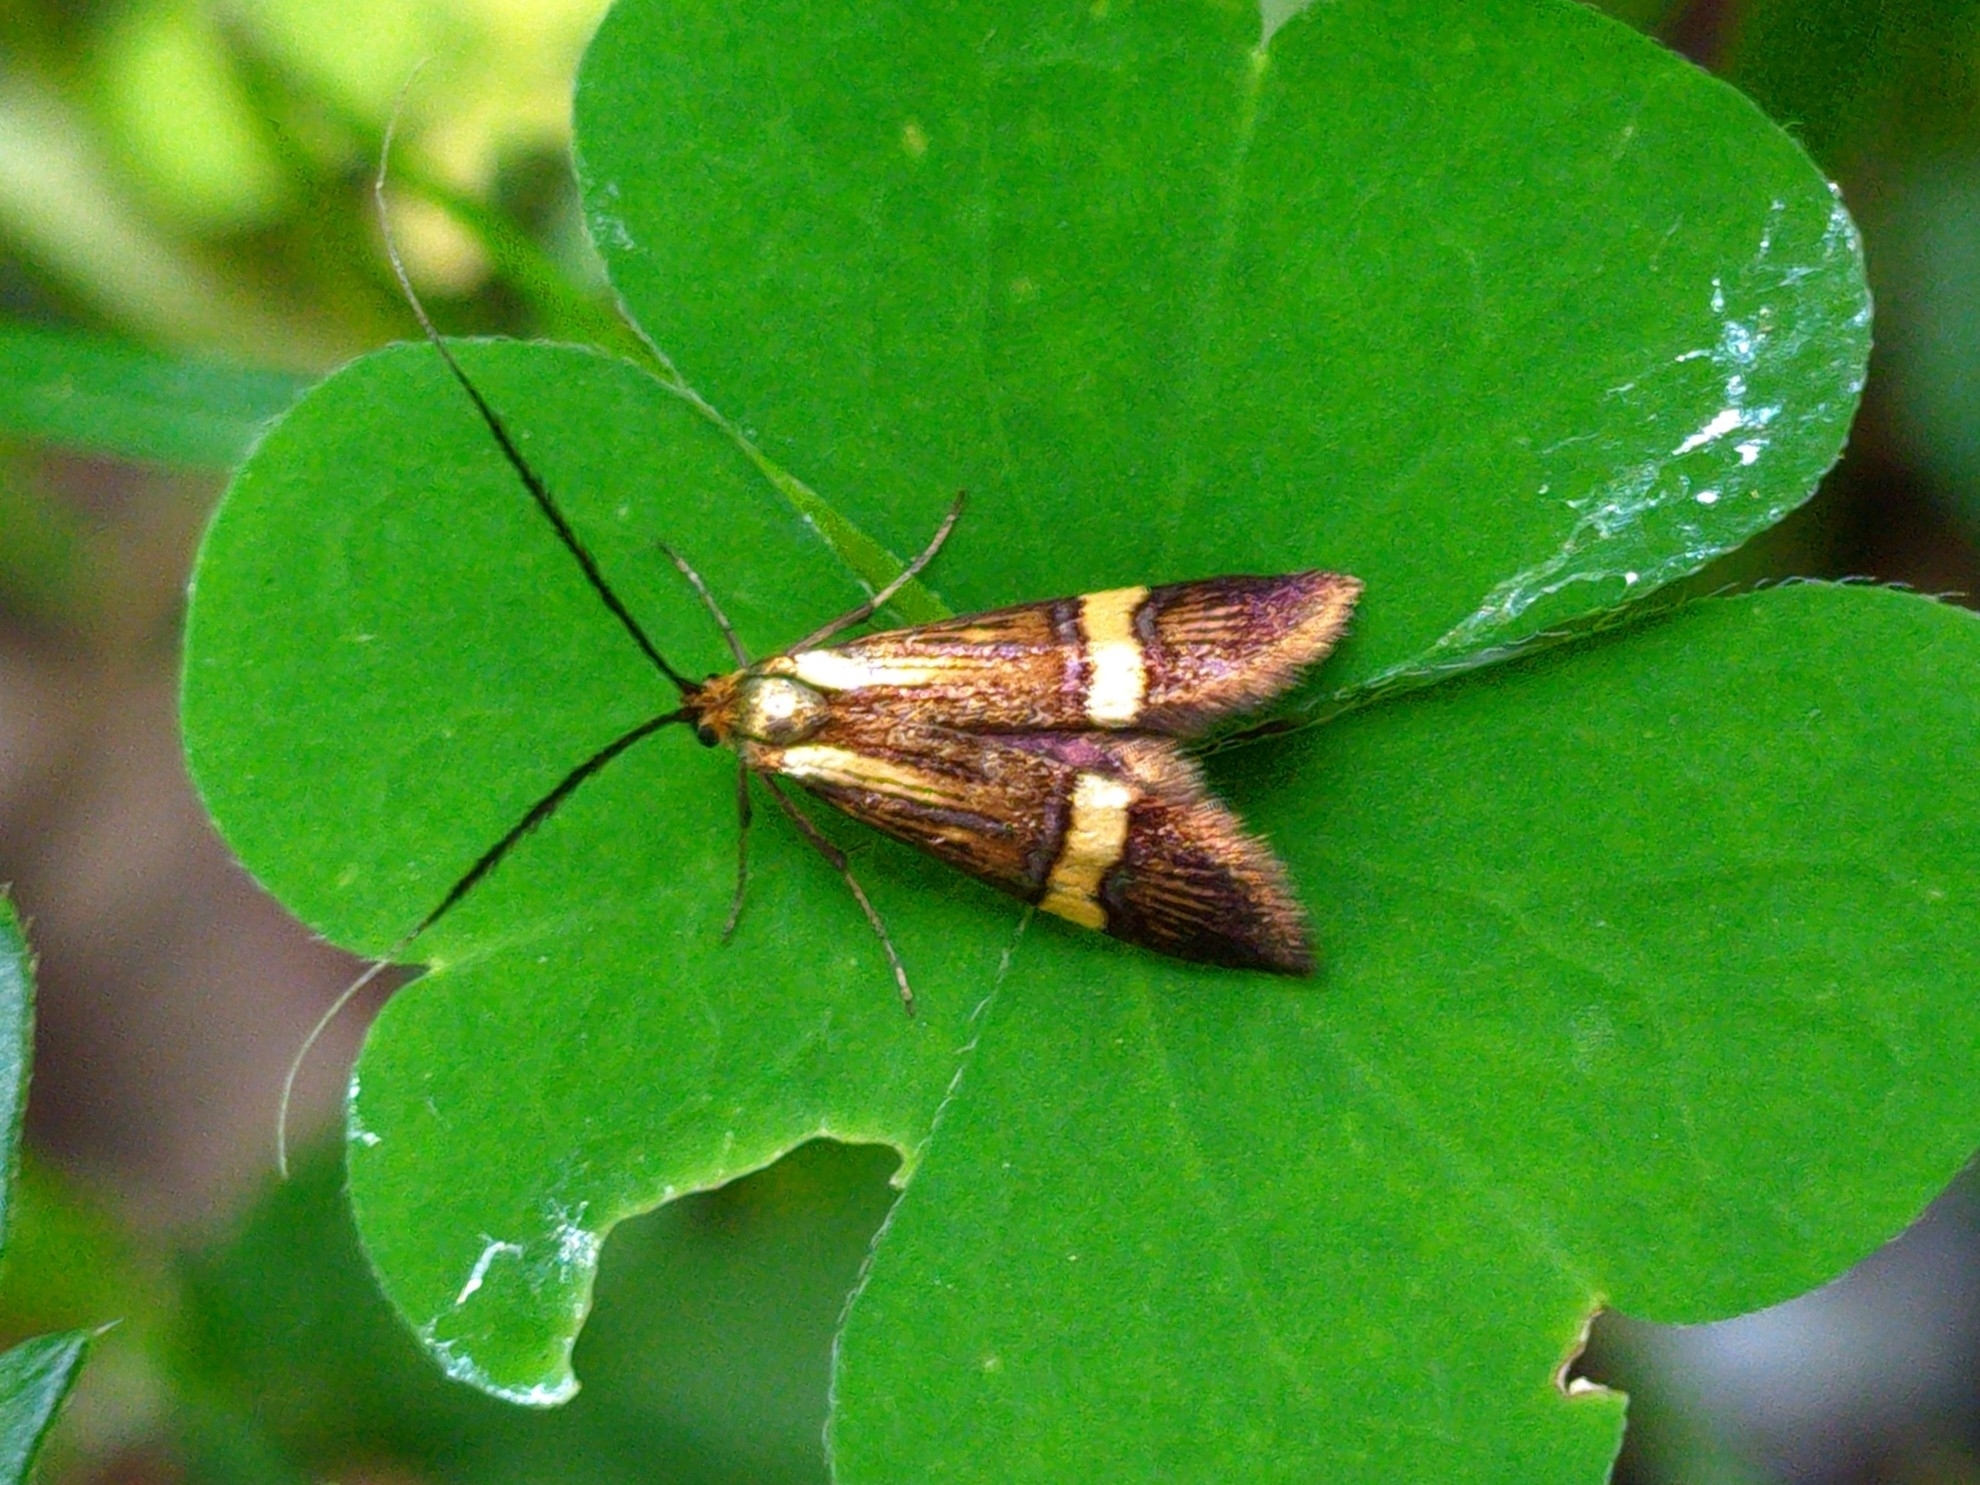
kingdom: Animalia
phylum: Arthropoda
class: Insecta
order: Lepidoptera
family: Adelidae
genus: Nemophora
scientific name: Nemophora
